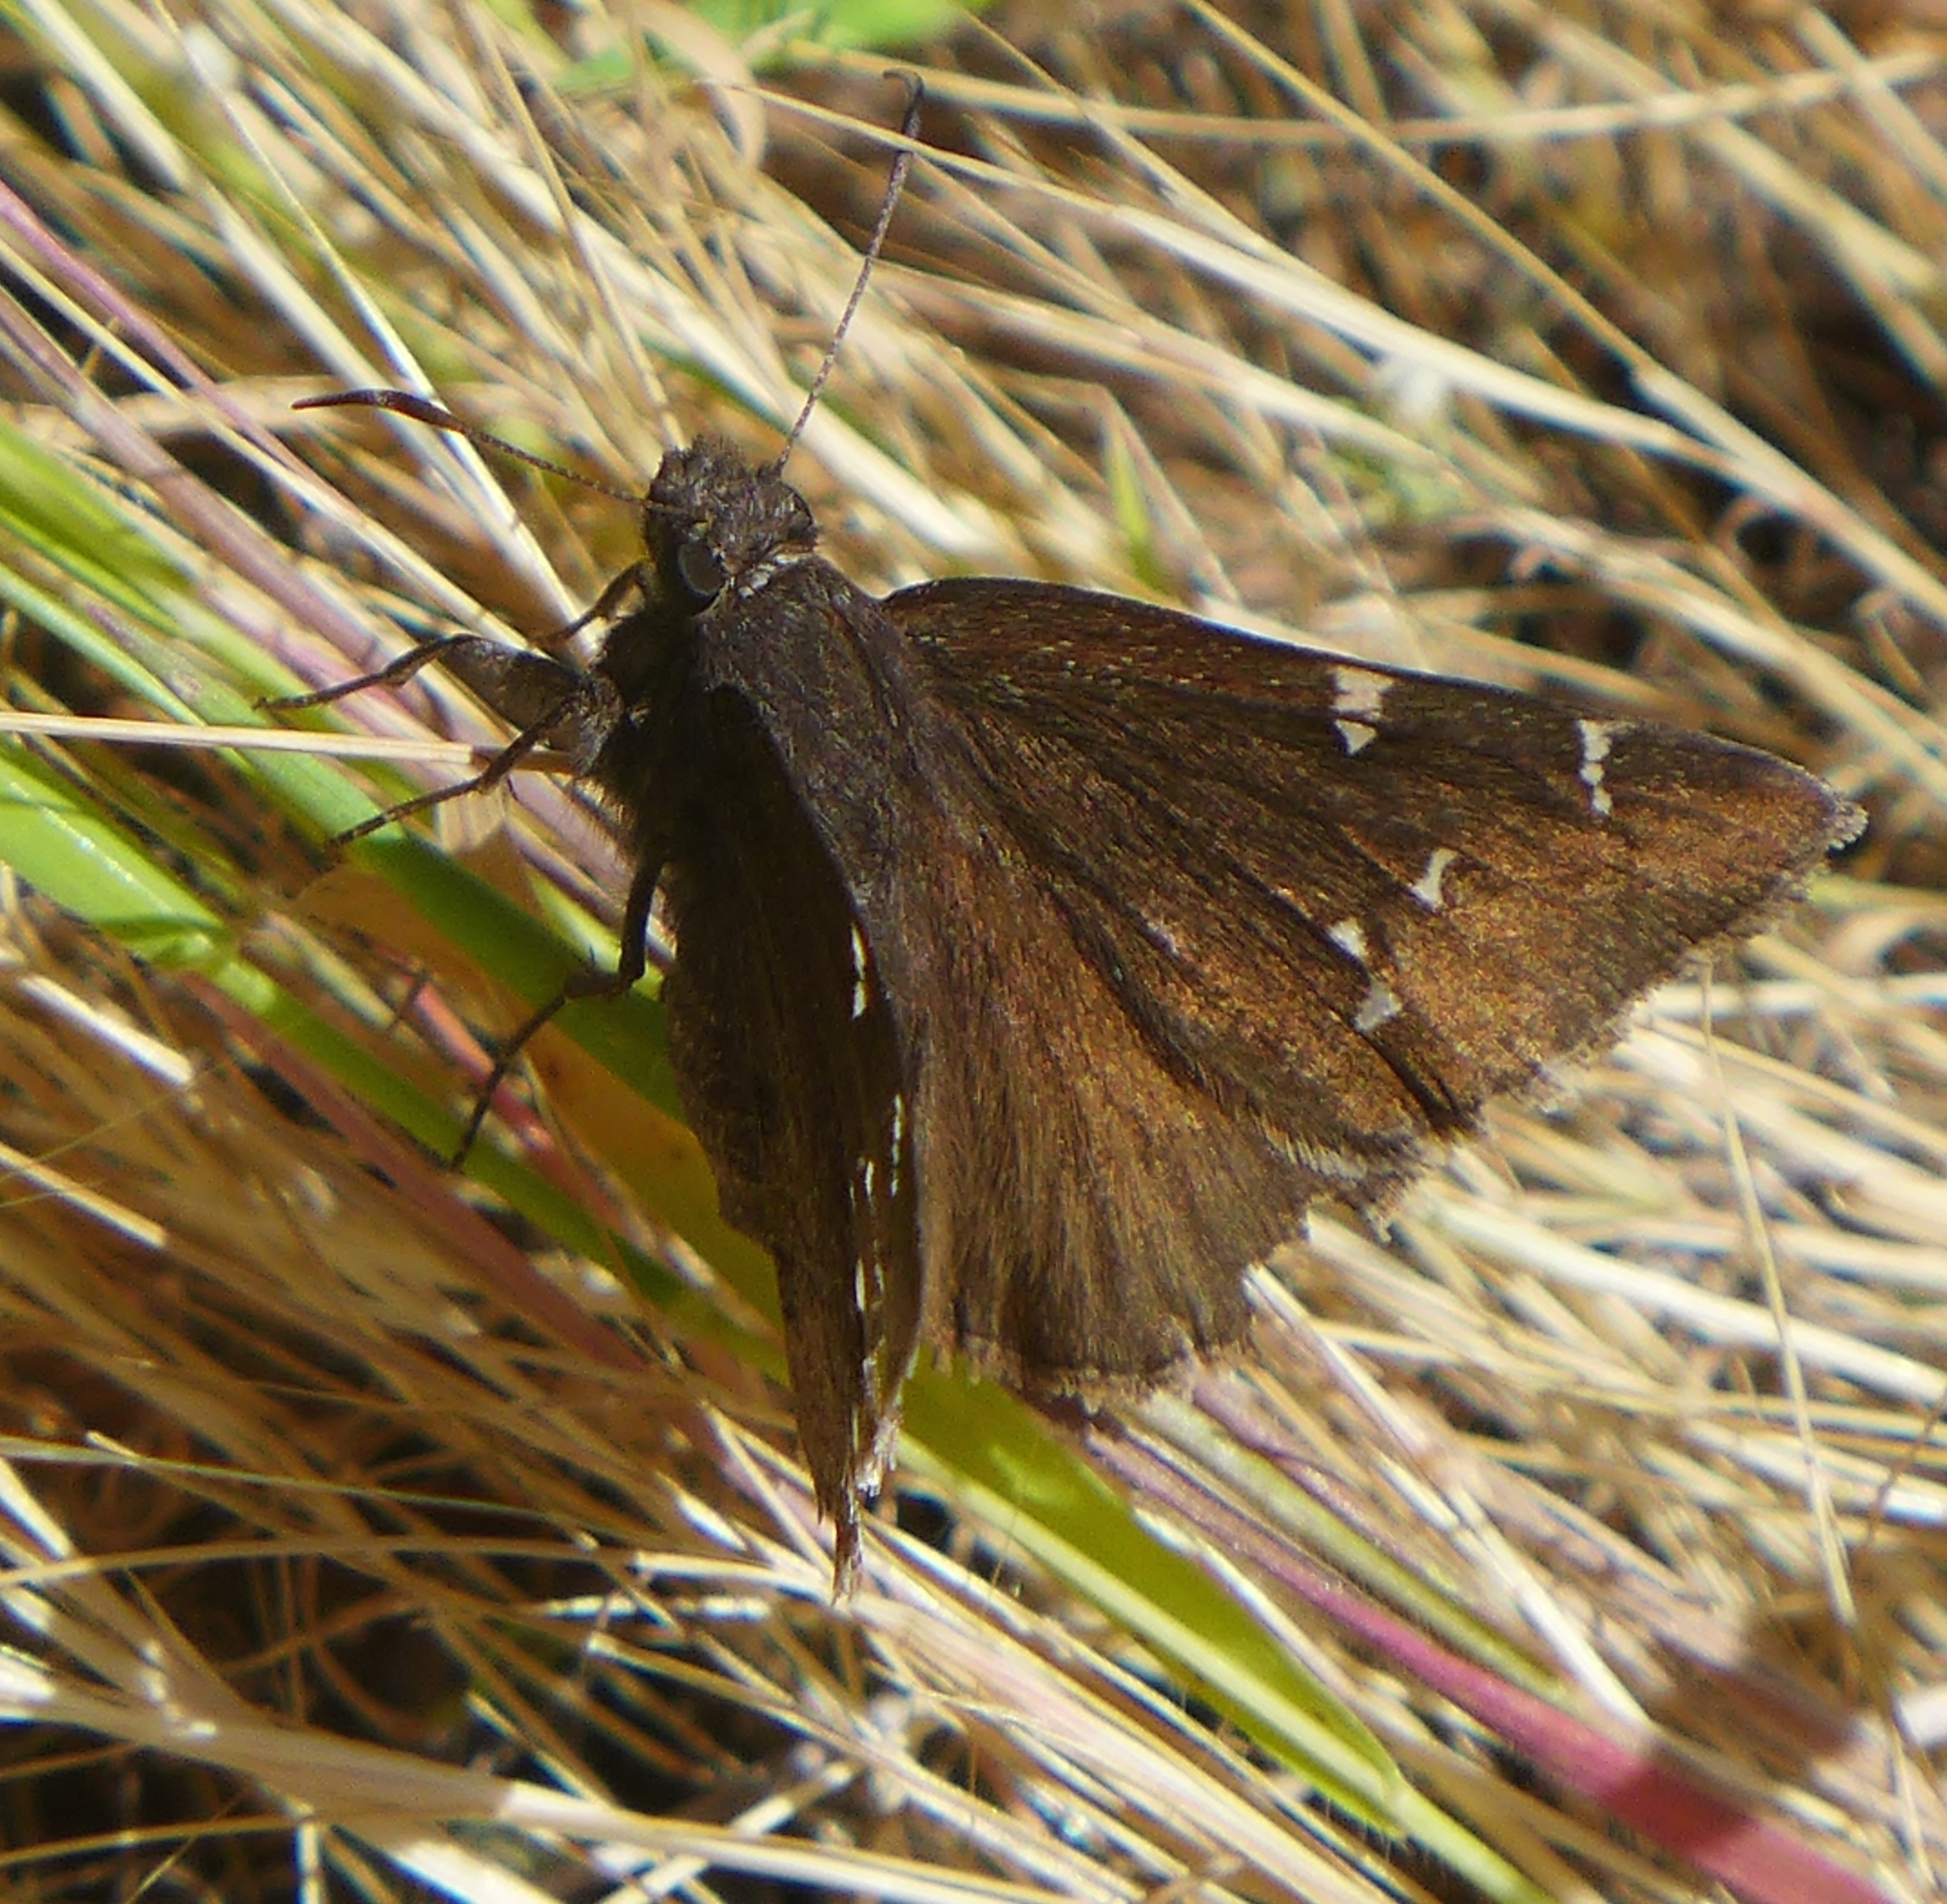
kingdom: Animalia
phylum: Arthropoda
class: Insecta
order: Lepidoptera
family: Hesperiidae
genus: Thorybes
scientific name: Thorybes pylades
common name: Northern cloudywing
